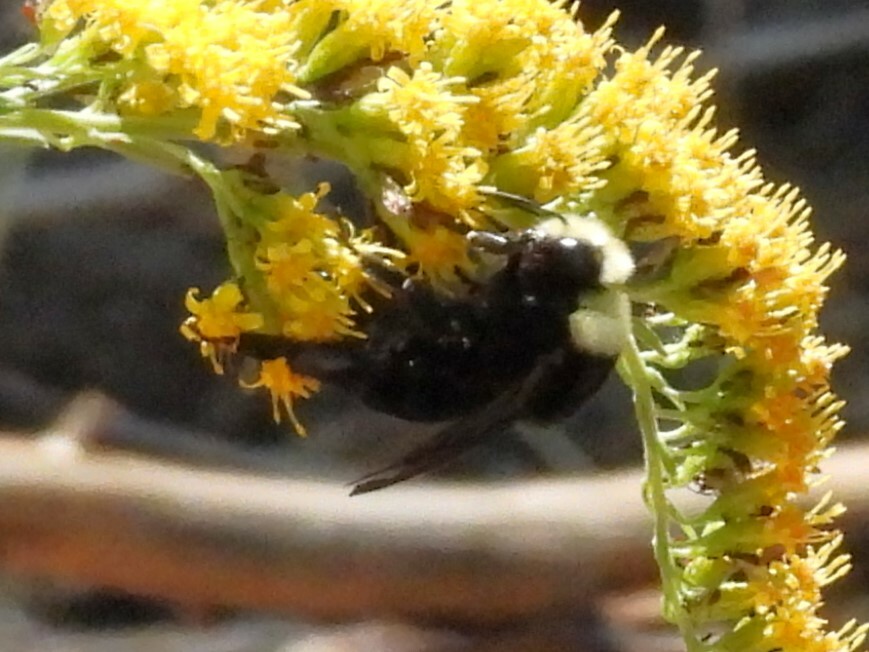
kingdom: Animalia
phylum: Arthropoda
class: Insecta
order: Hymenoptera
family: Apidae
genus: Bombus
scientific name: Bombus vosnesenskii
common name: Vosnesensky bumble bee
